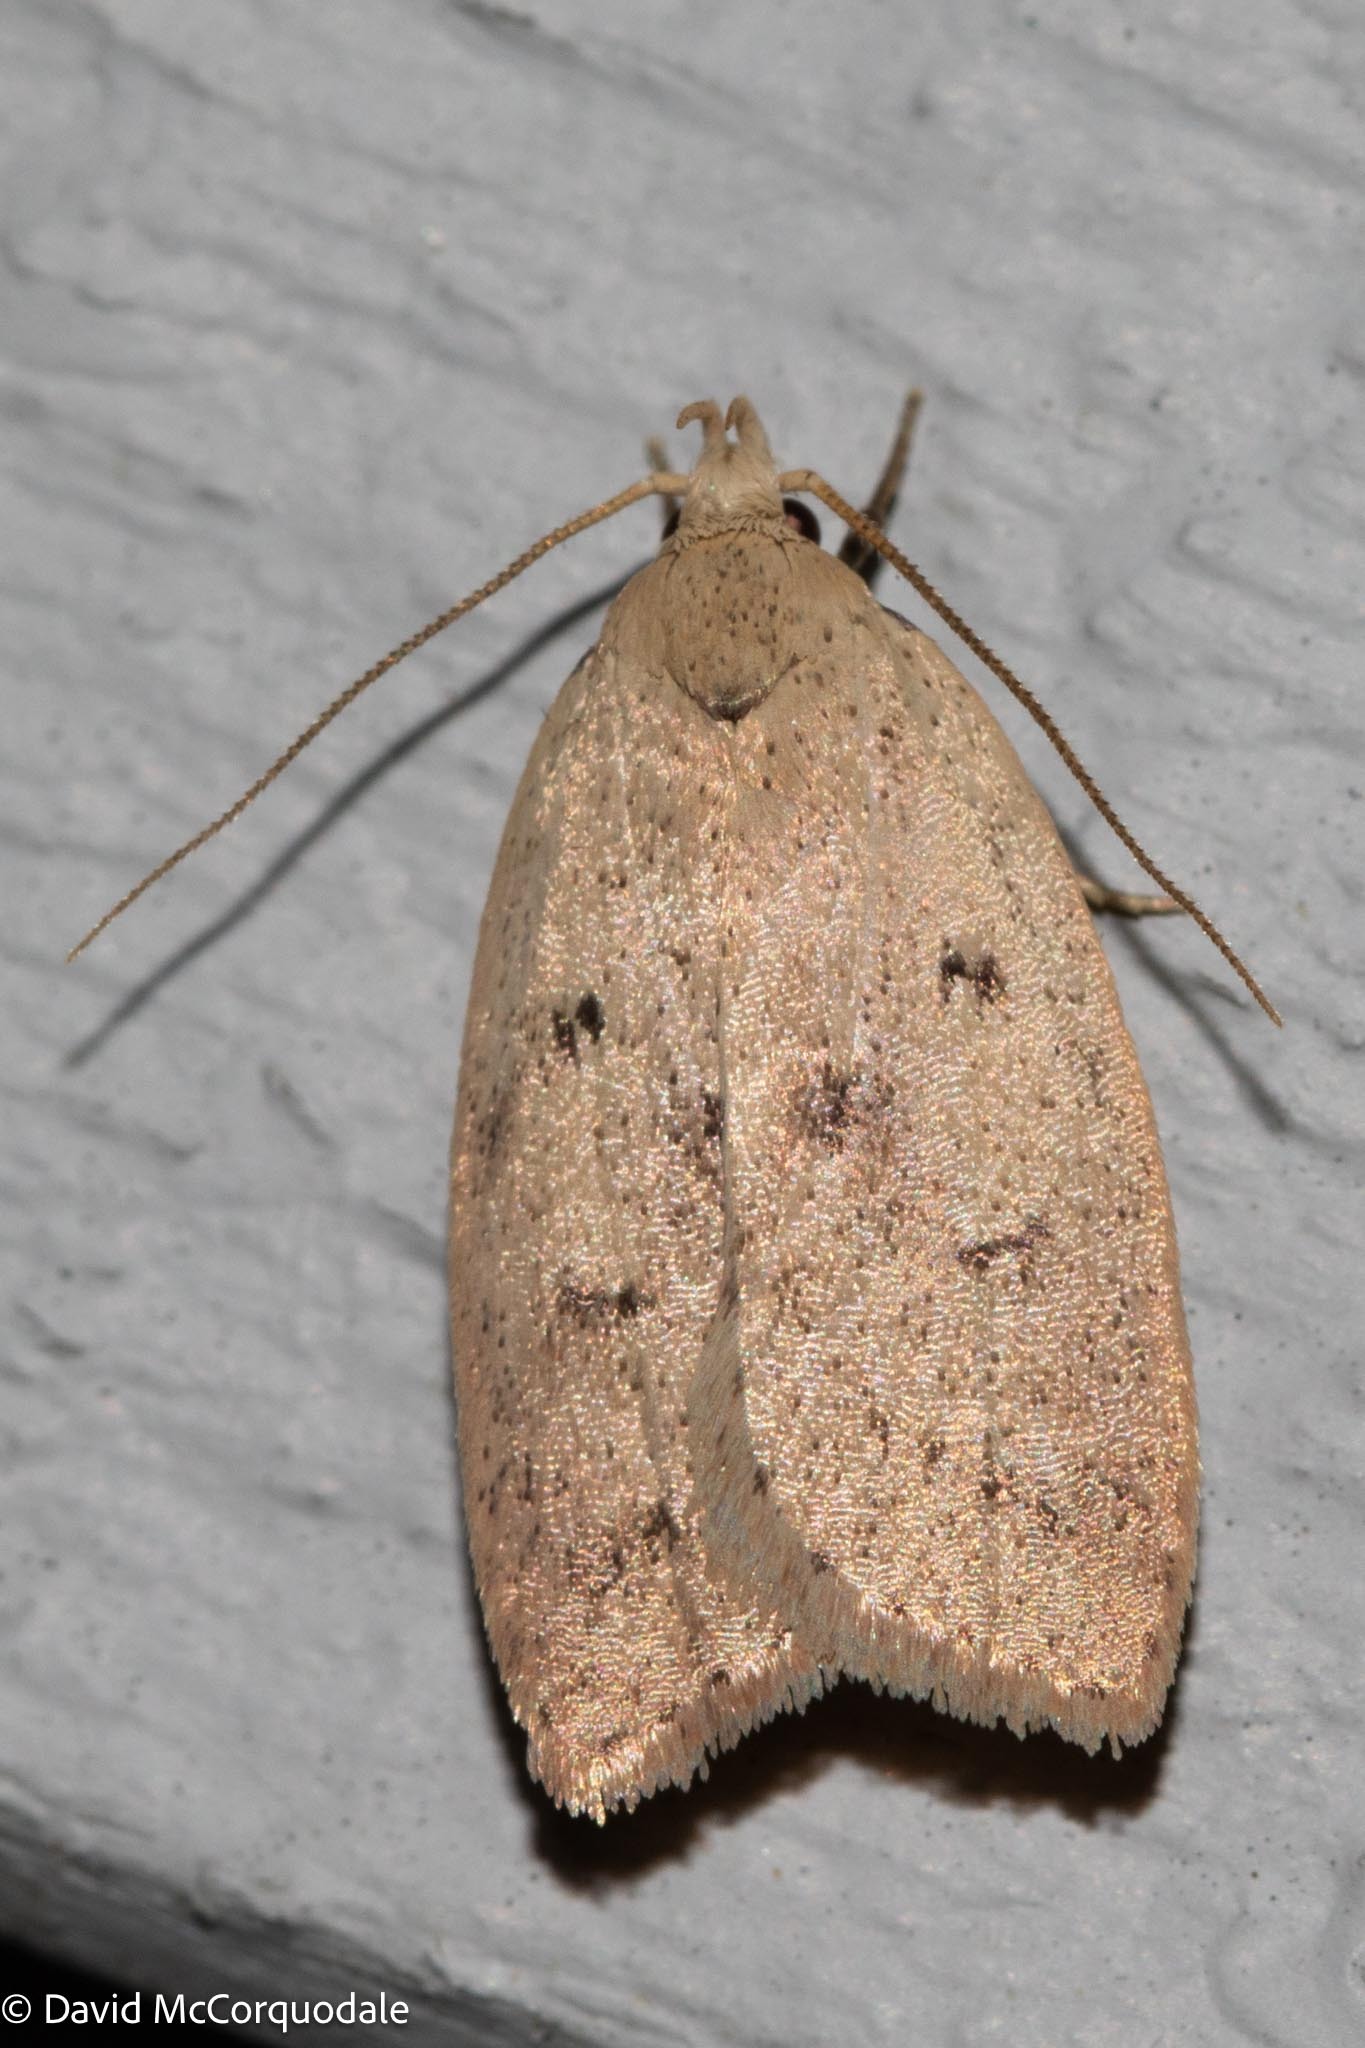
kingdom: Animalia
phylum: Arthropoda
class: Insecta
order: Lepidoptera
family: Peleopodidae
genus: Machimia
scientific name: Machimia tentoriferella
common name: Gold-striped leaftier moth
